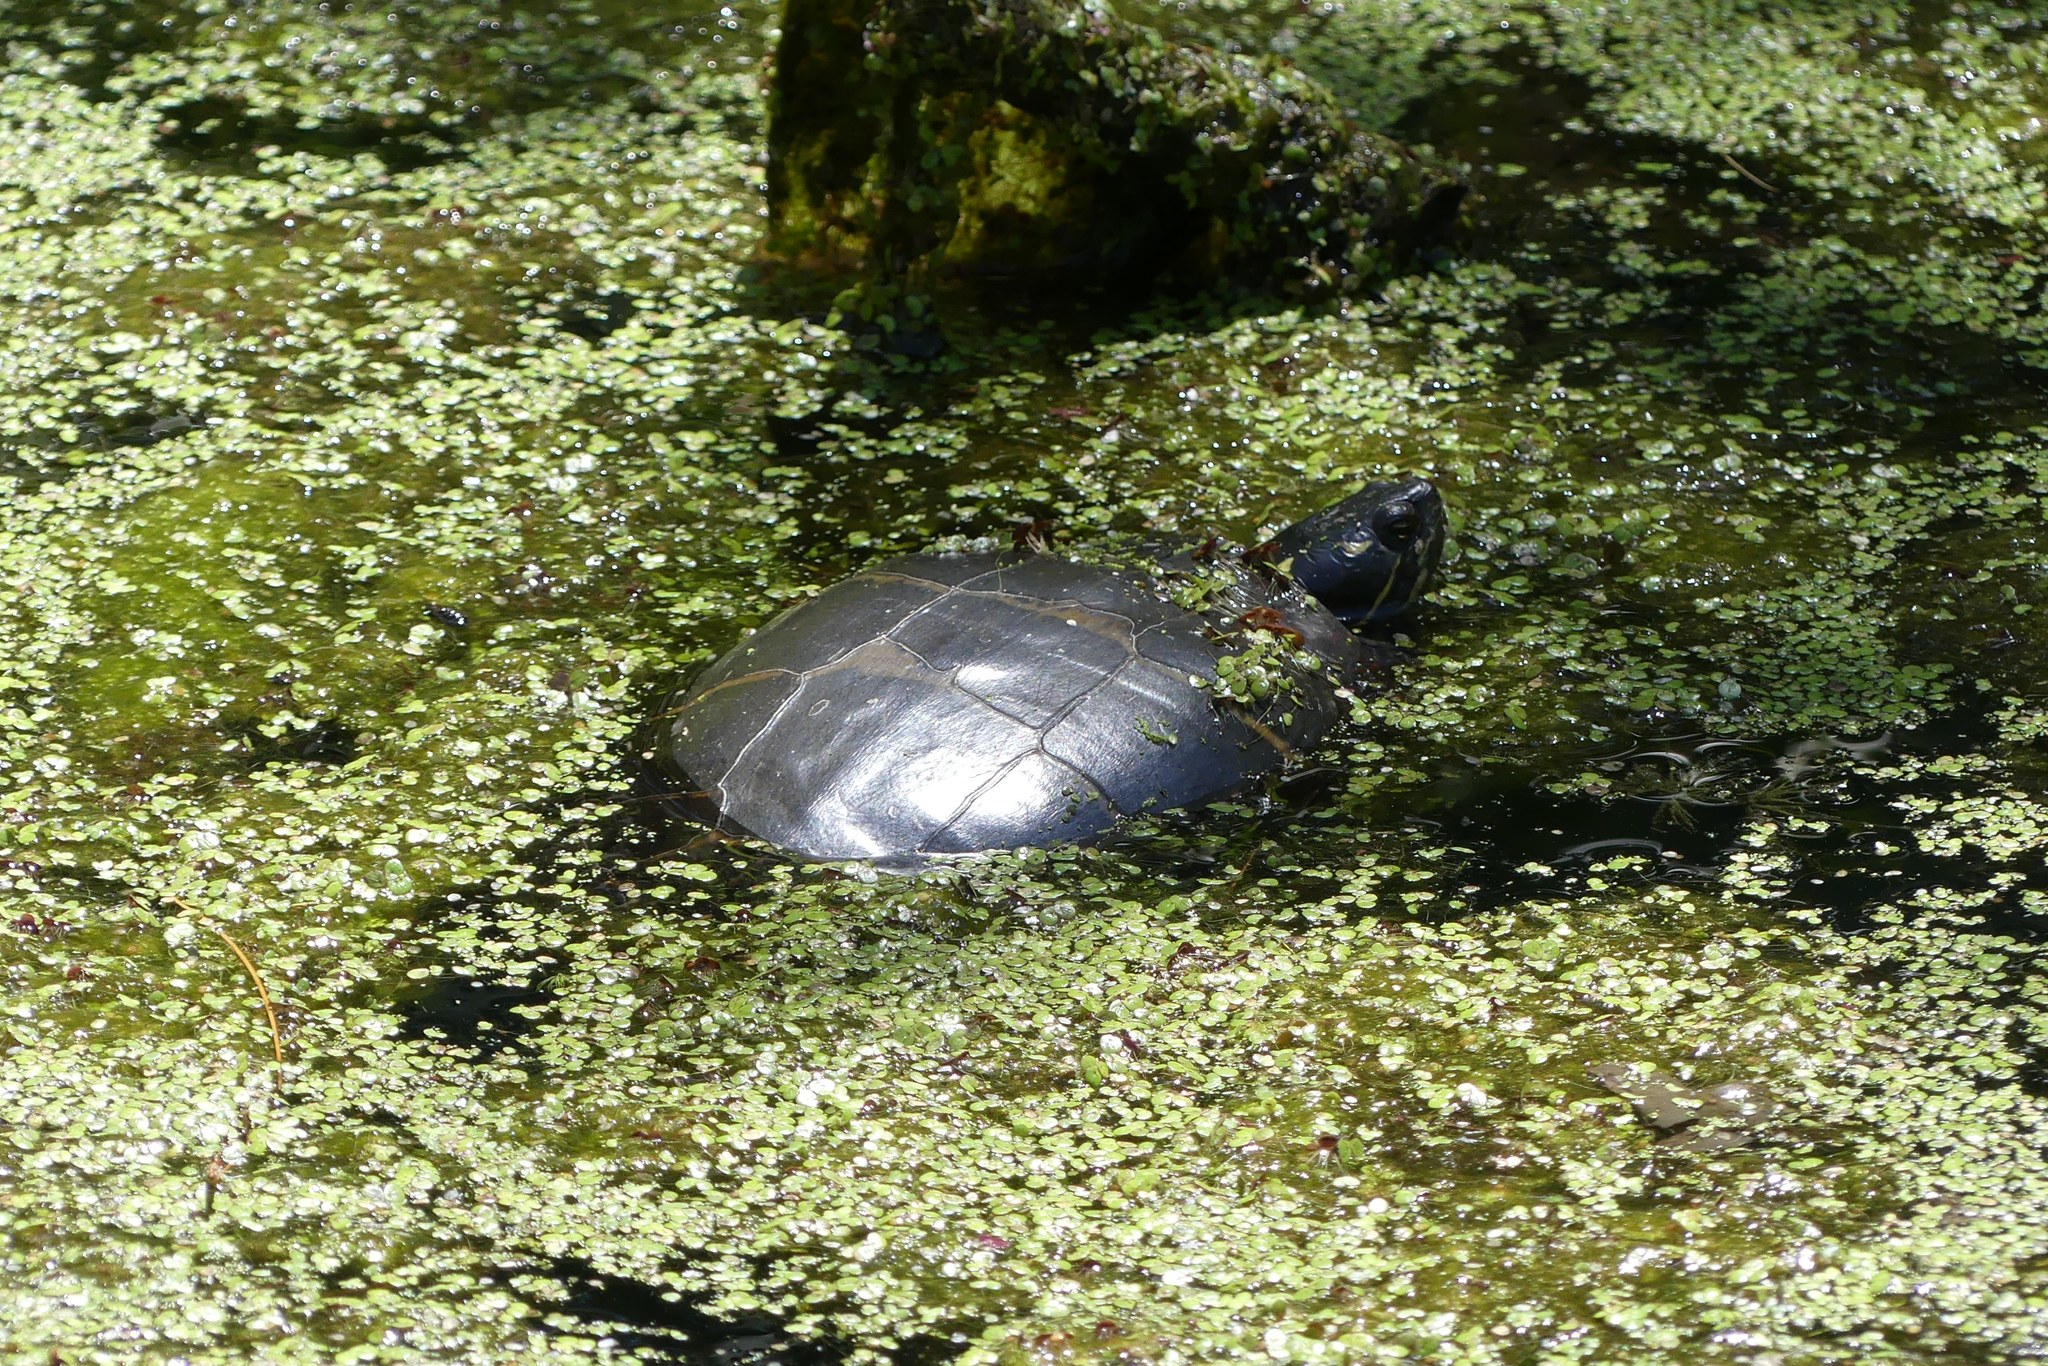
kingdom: Animalia
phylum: Chordata
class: Testudines
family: Emydidae
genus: Chrysemys
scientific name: Chrysemys picta
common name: Painted turtle
